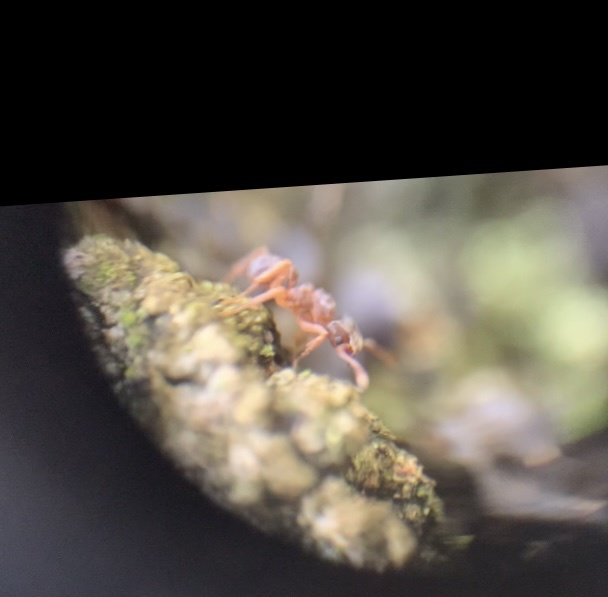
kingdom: Animalia
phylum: Arthropoda
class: Insecta
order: Hymenoptera
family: Formicidae
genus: Cyphomyrmex
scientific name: Cyphomyrmex minutus
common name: Ant
